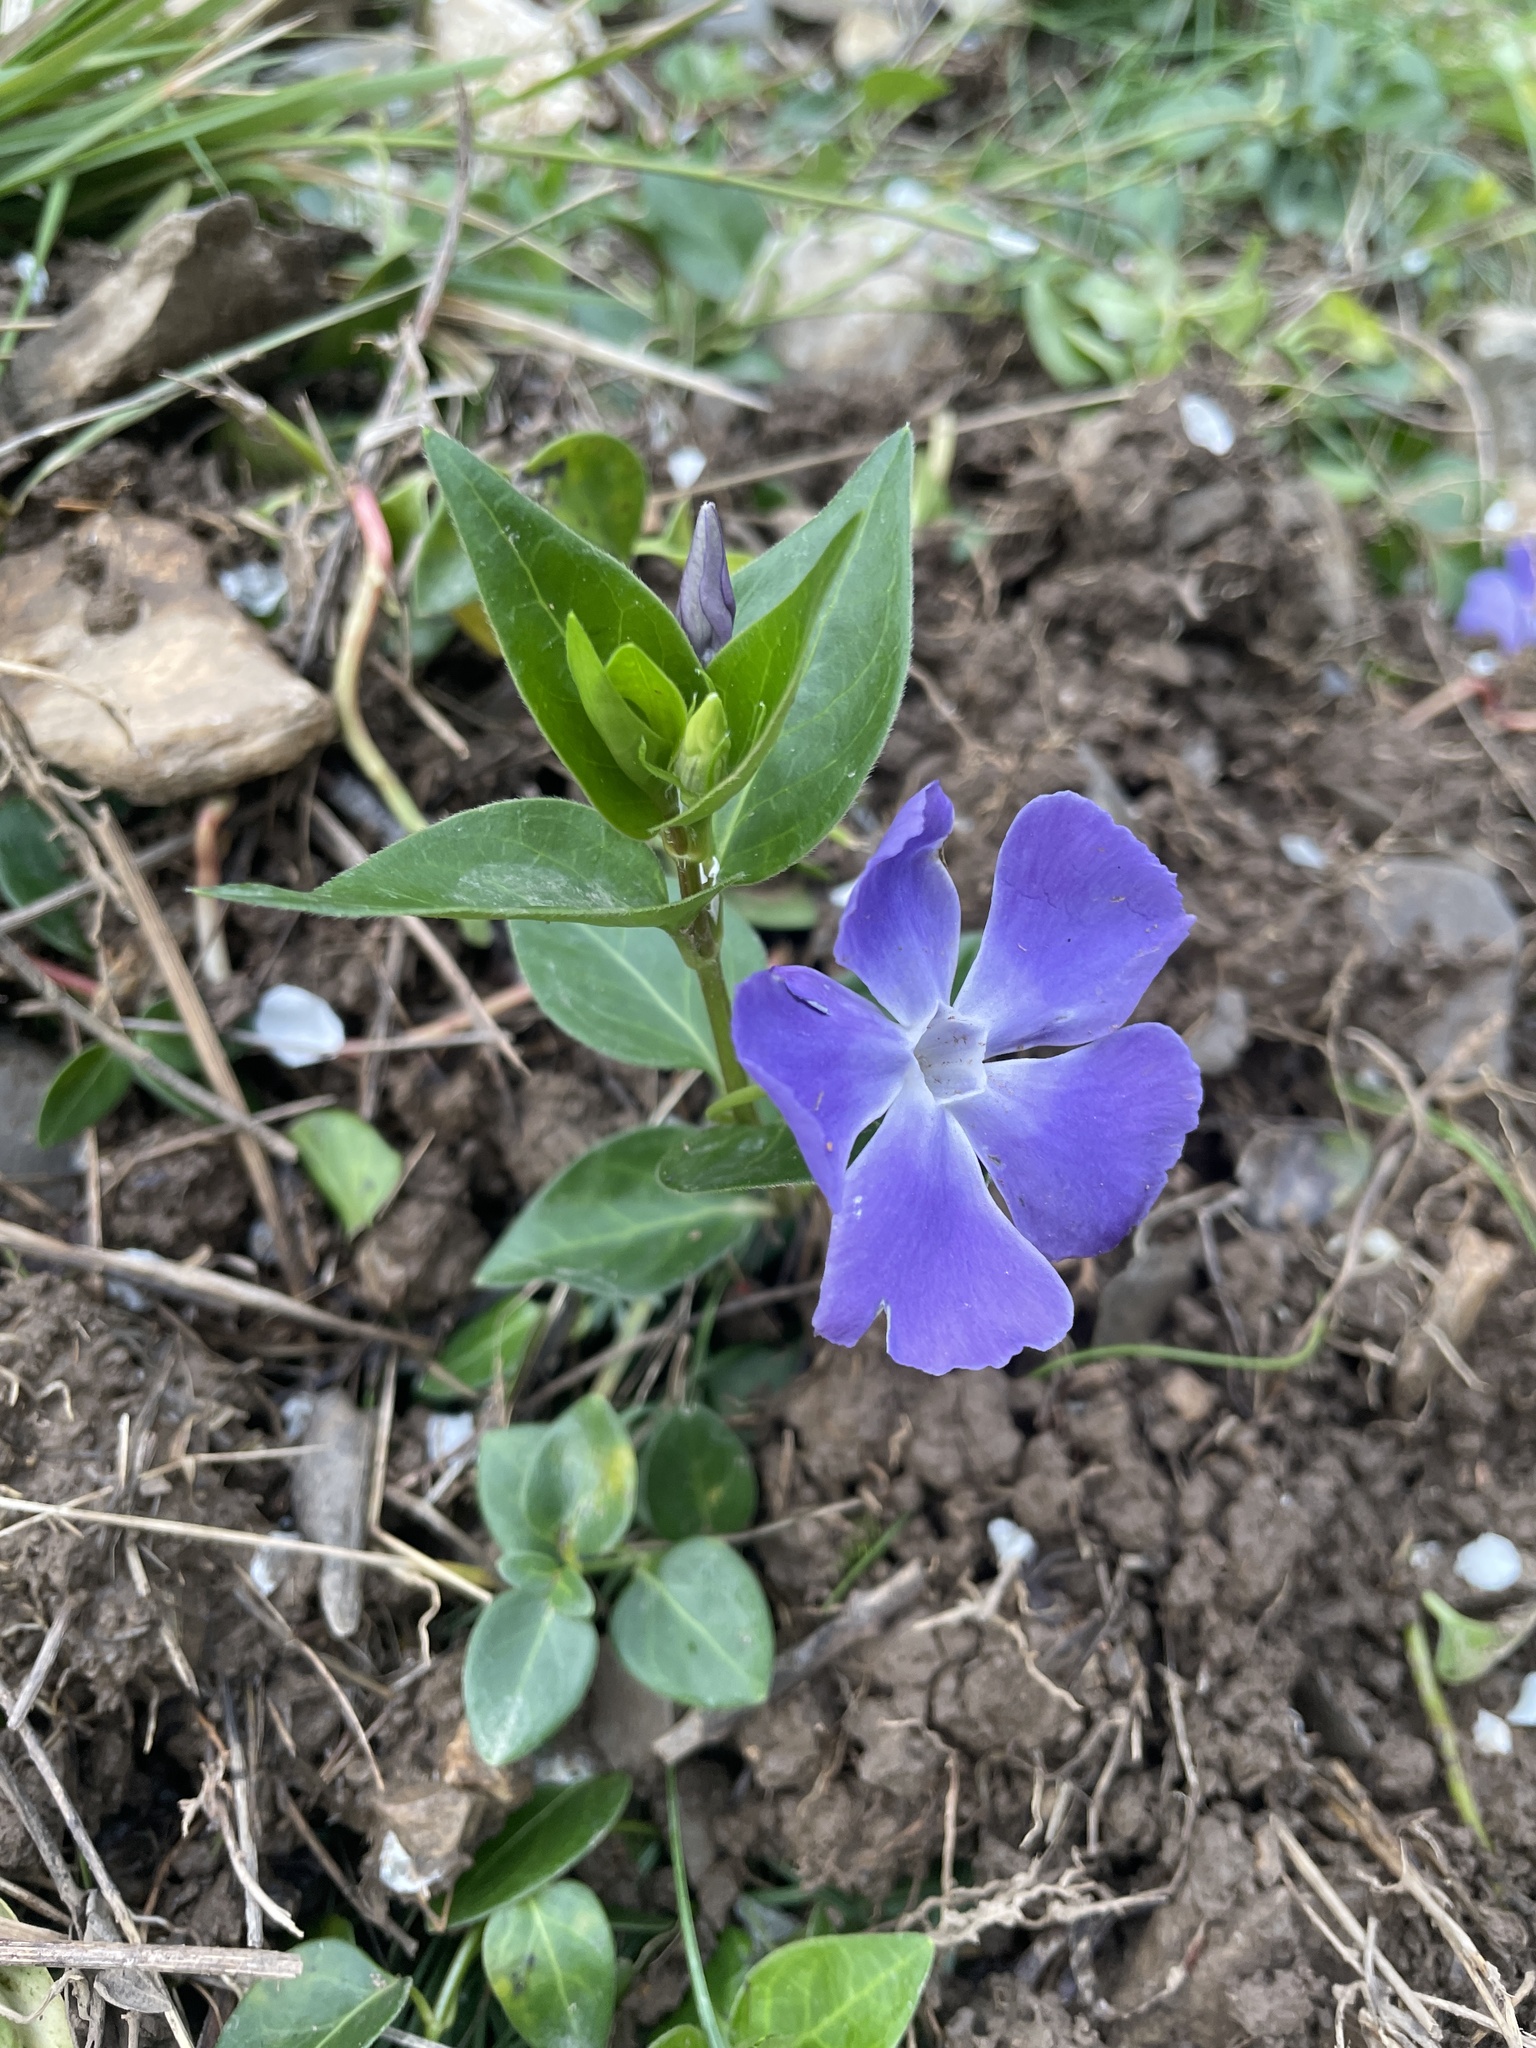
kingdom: Plantae
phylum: Tracheophyta
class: Magnoliopsida
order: Gentianales
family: Apocynaceae
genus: Vinca
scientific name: Vinca major
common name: Greater periwinkle
